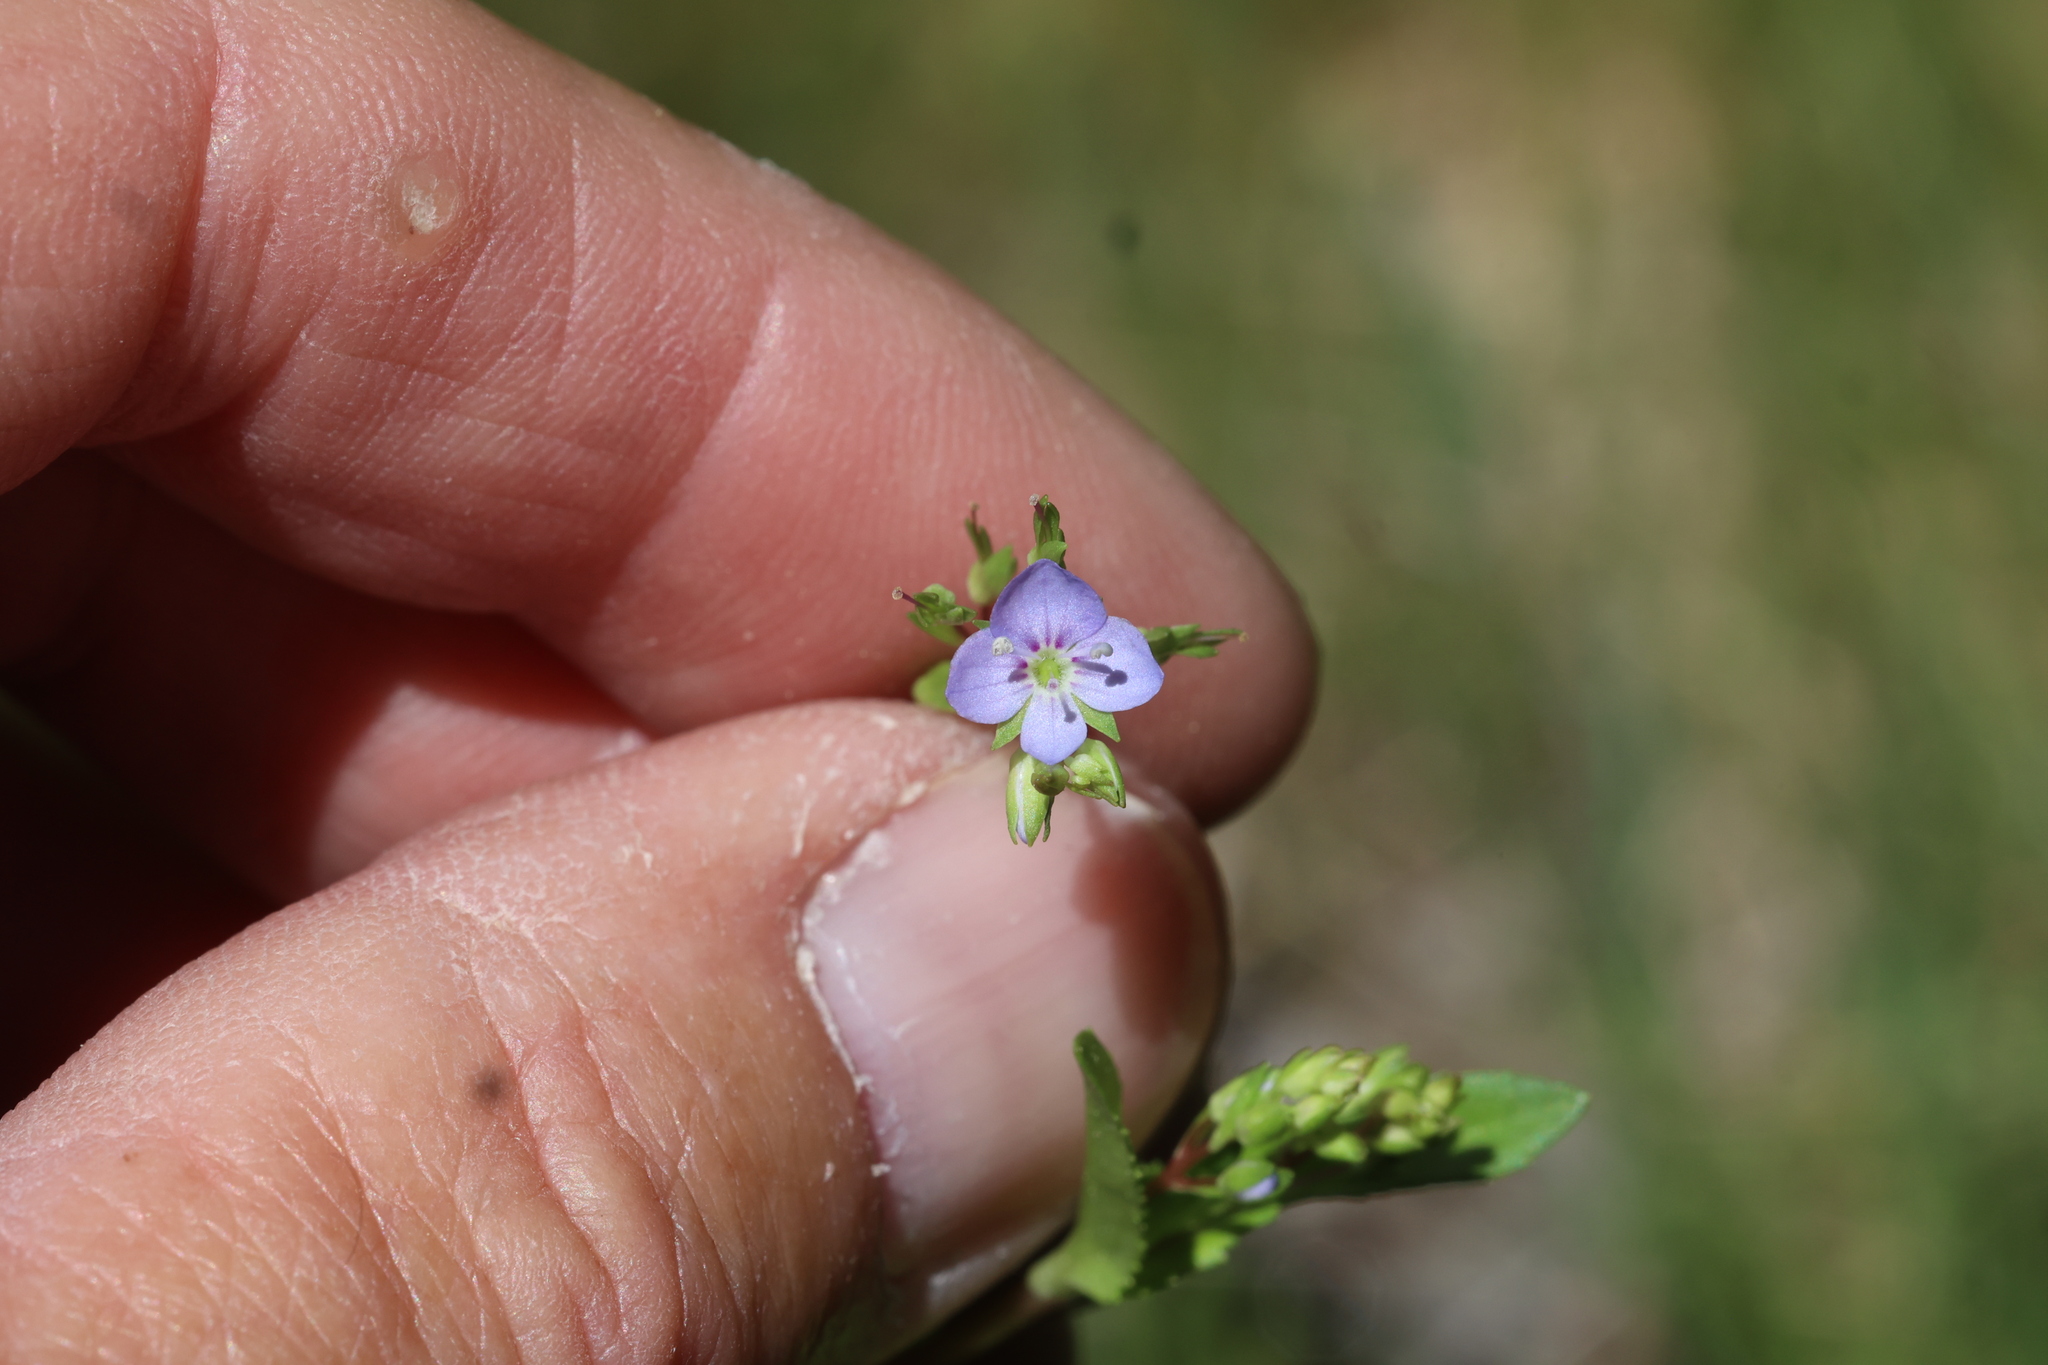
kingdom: Plantae
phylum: Tracheophyta
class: Magnoliopsida
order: Lamiales
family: Plantaginaceae
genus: Veronica
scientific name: Veronica americana
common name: American brooklime
